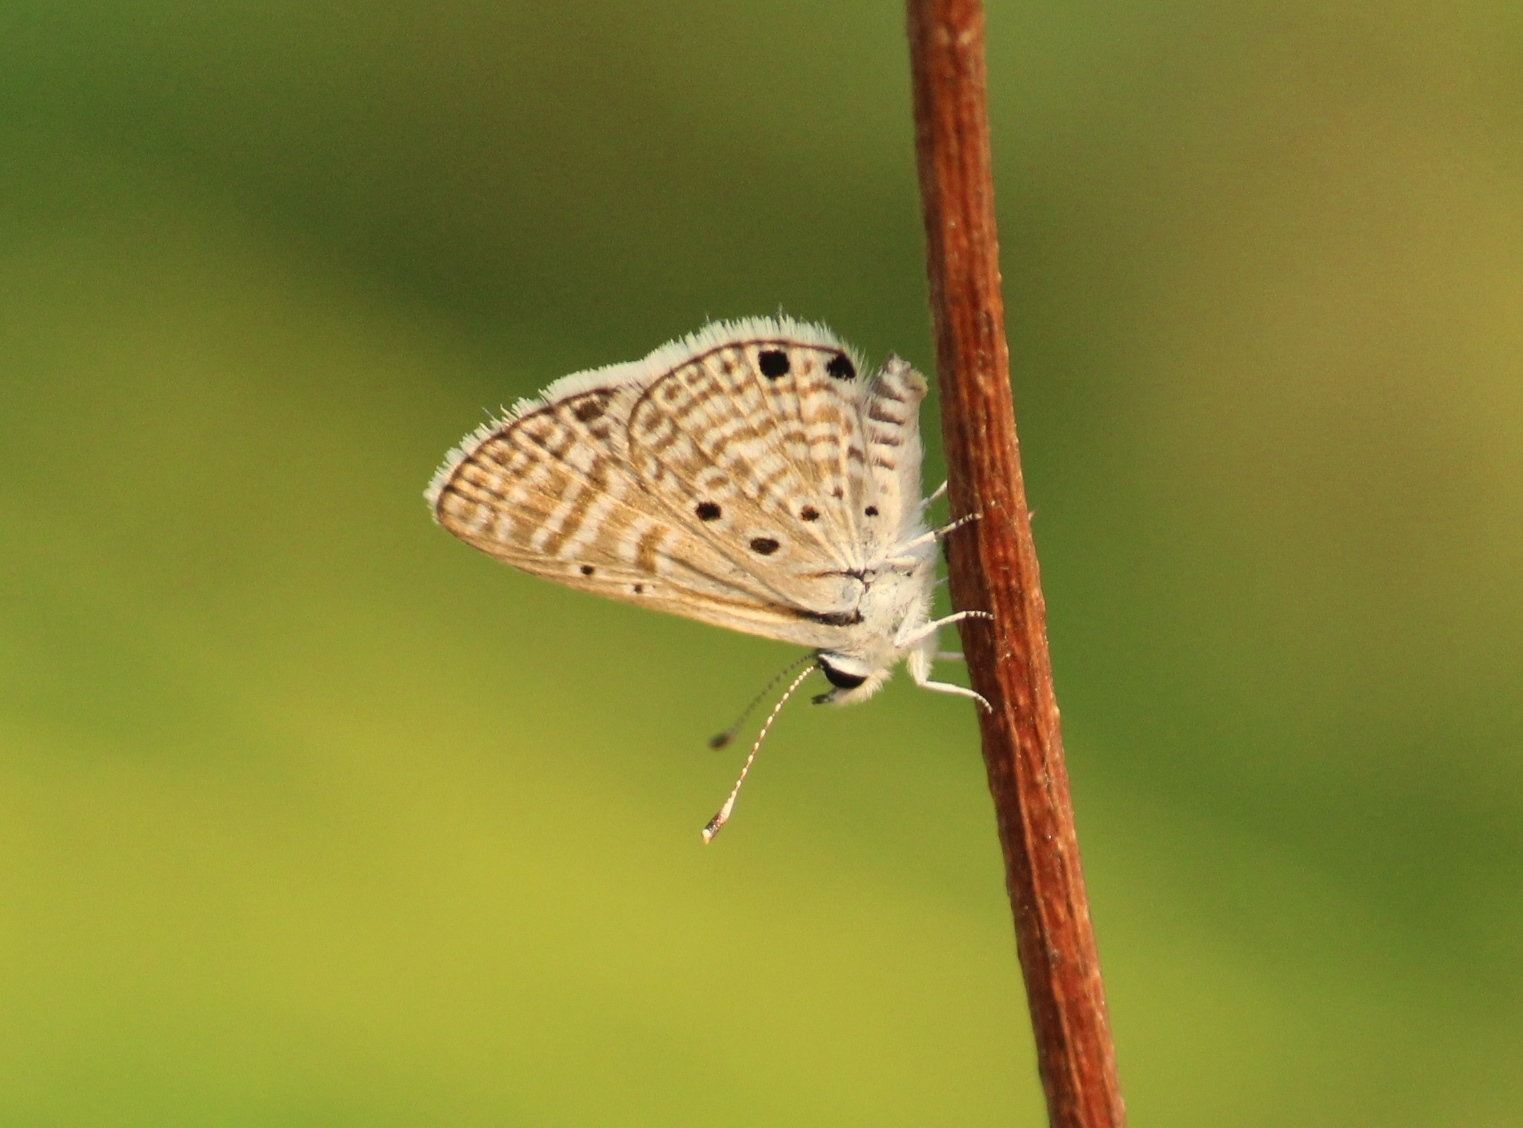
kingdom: Animalia
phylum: Arthropoda
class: Insecta
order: Lepidoptera
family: Lycaenidae
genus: Azanus
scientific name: Azanus ubaldus
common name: Desert babul blue
